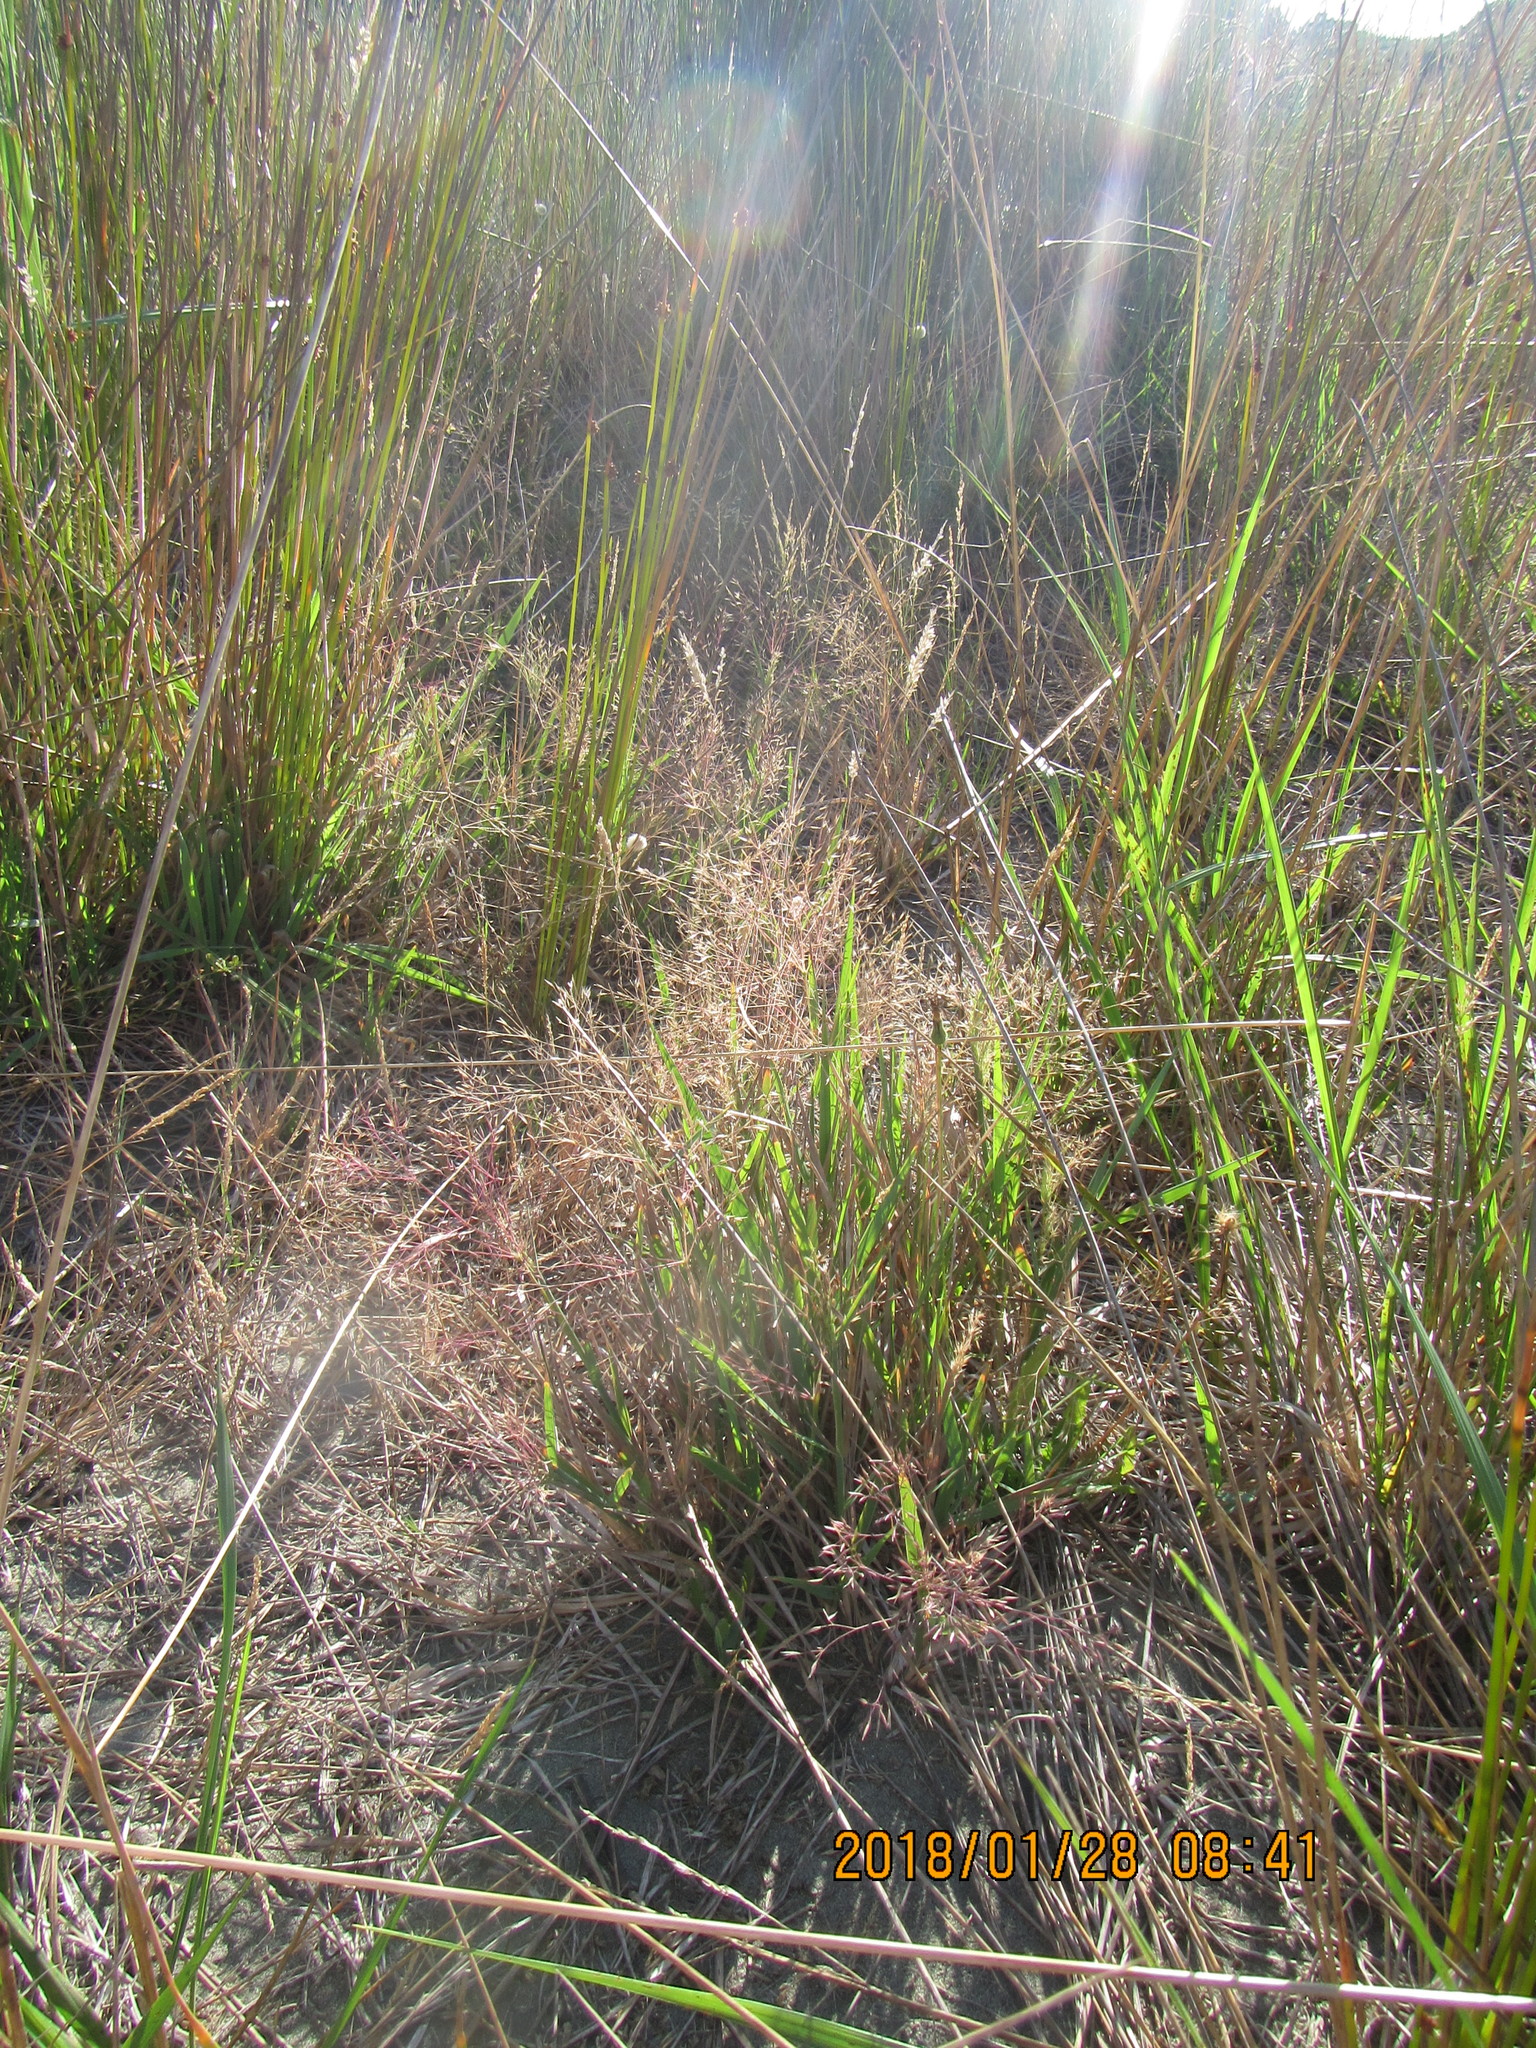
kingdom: Plantae
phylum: Tracheophyta
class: Liliopsida
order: Poales
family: Poaceae
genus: Lachnagrostis
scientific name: Lachnagrostis billardierei
